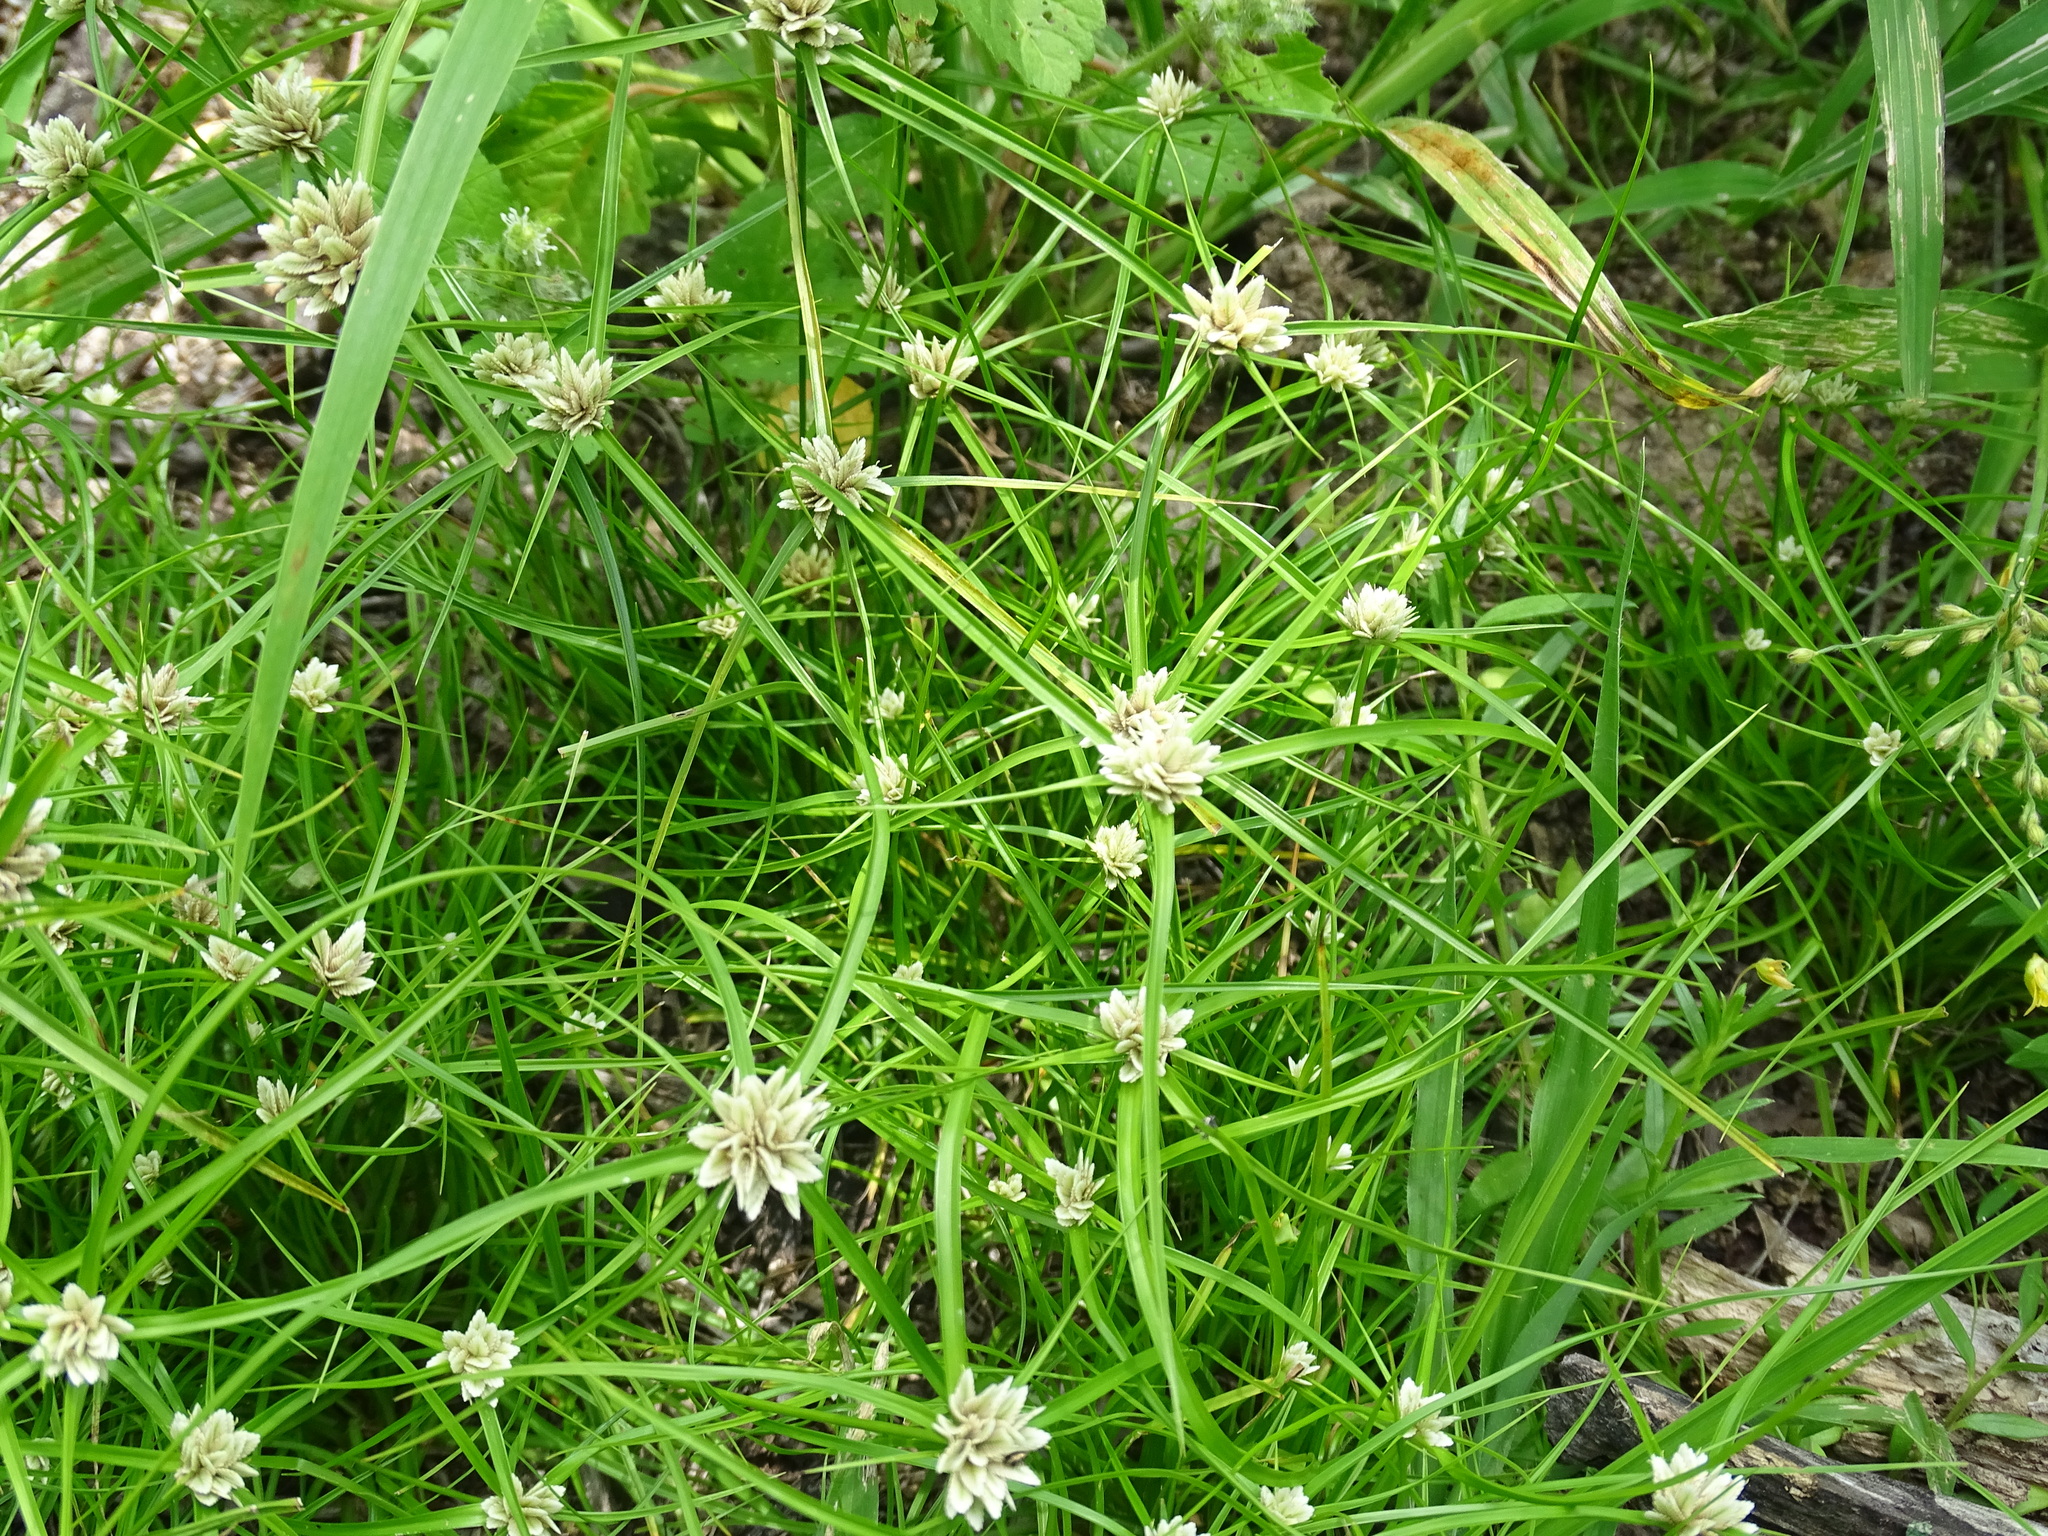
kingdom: Plantae
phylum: Tracheophyta
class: Liliopsida
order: Poales
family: Cyperaceae
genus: Cyperus
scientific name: Cyperus seslerioides
